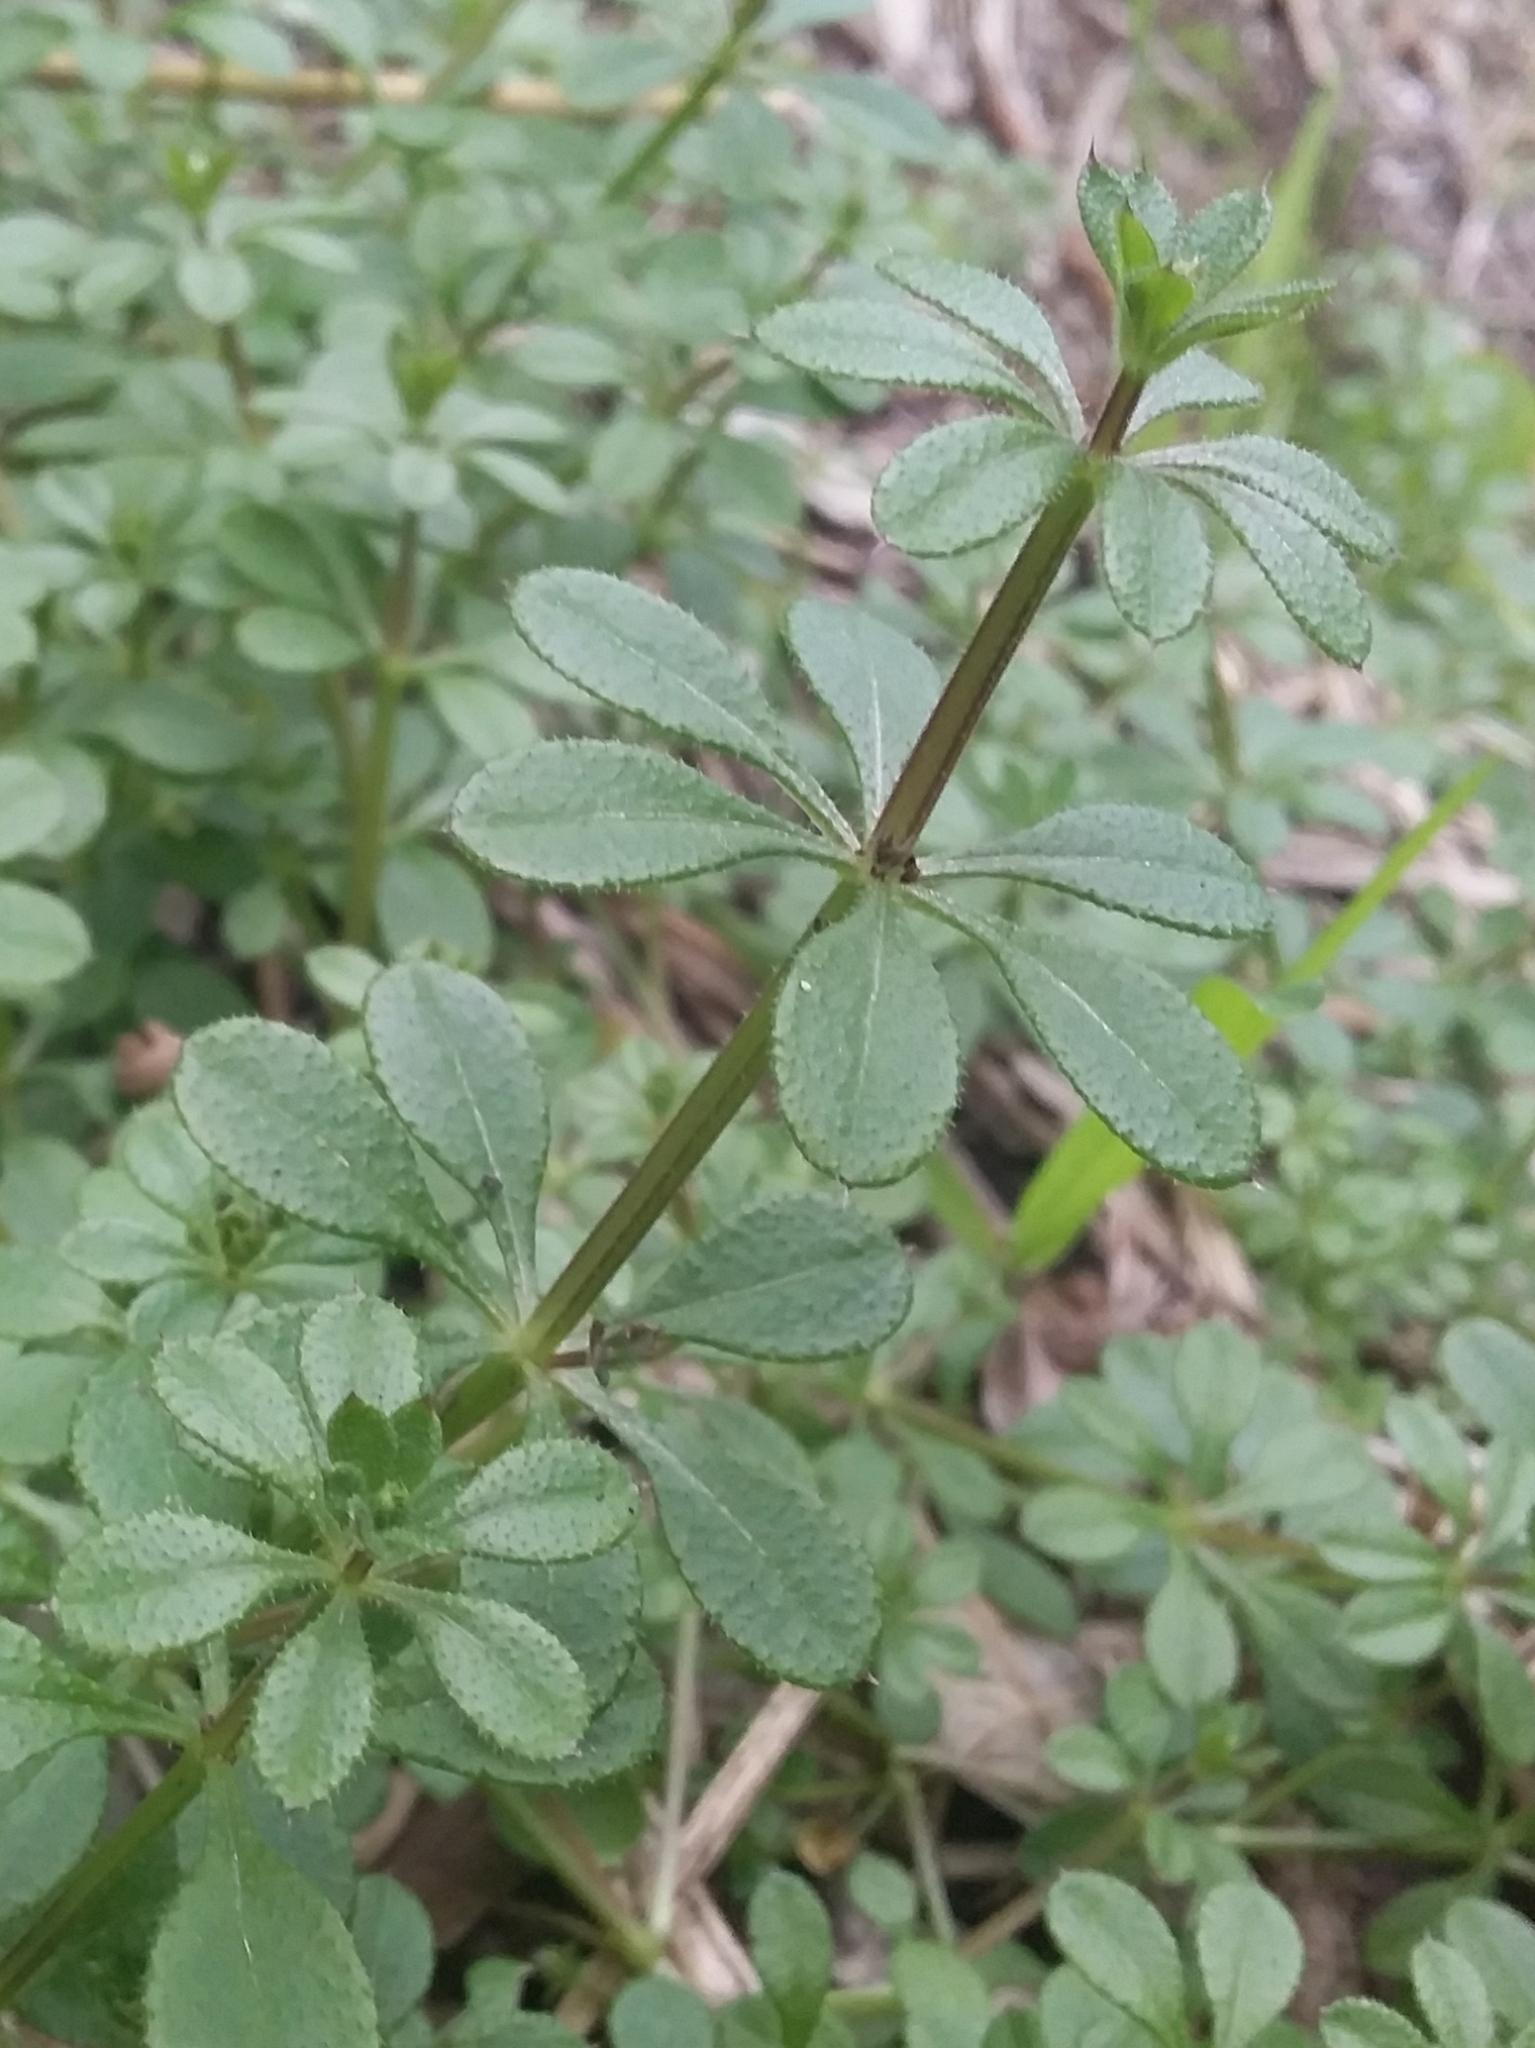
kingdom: Plantae
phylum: Tracheophyta
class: Magnoliopsida
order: Gentianales
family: Rubiaceae
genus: Galium
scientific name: Galium aparine
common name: Cleavers
